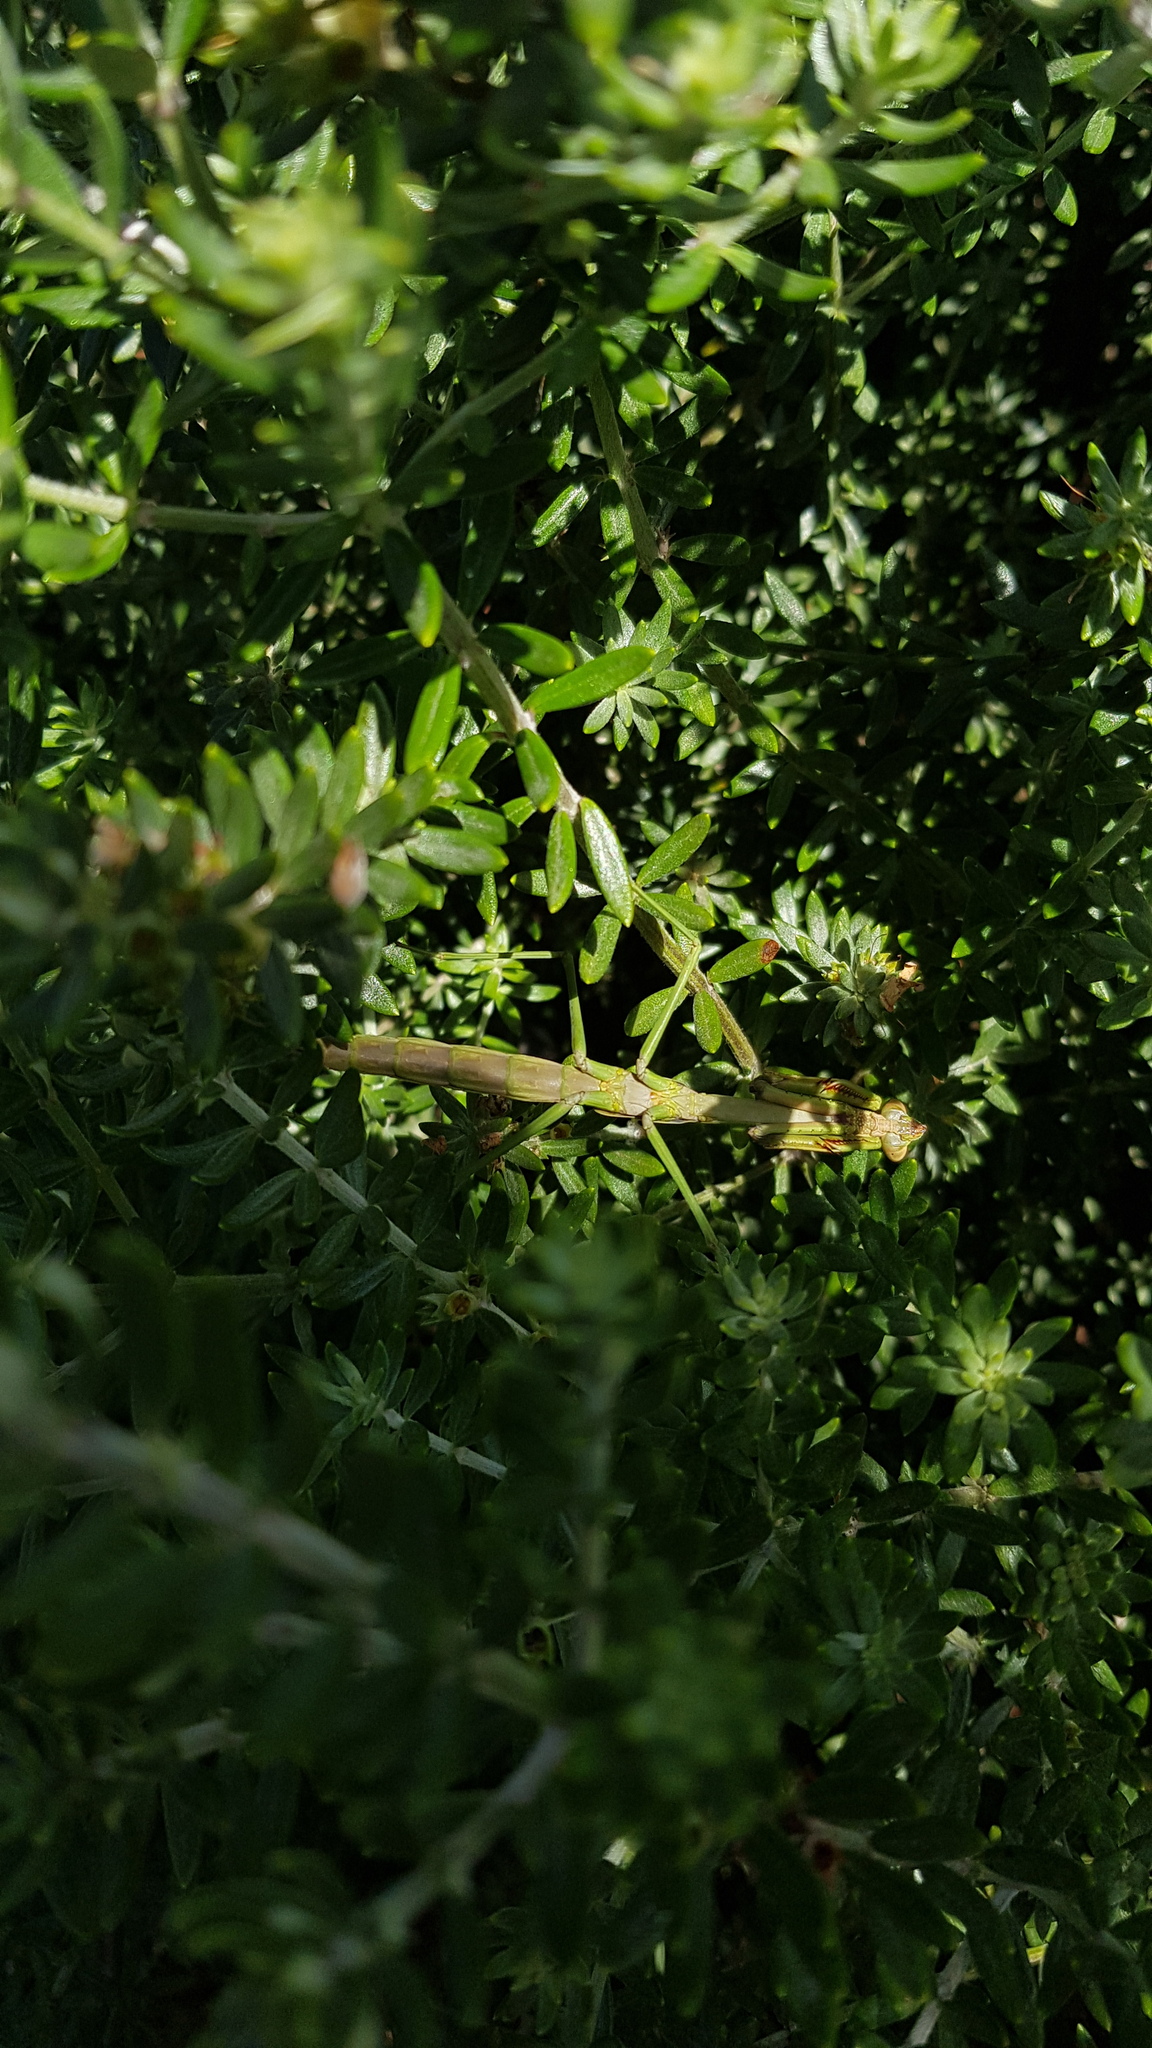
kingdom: Animalia
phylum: Arthropoda
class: Insecta
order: Mantodea
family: Mantidae
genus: Archimantis
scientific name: Archimantis latistyla
